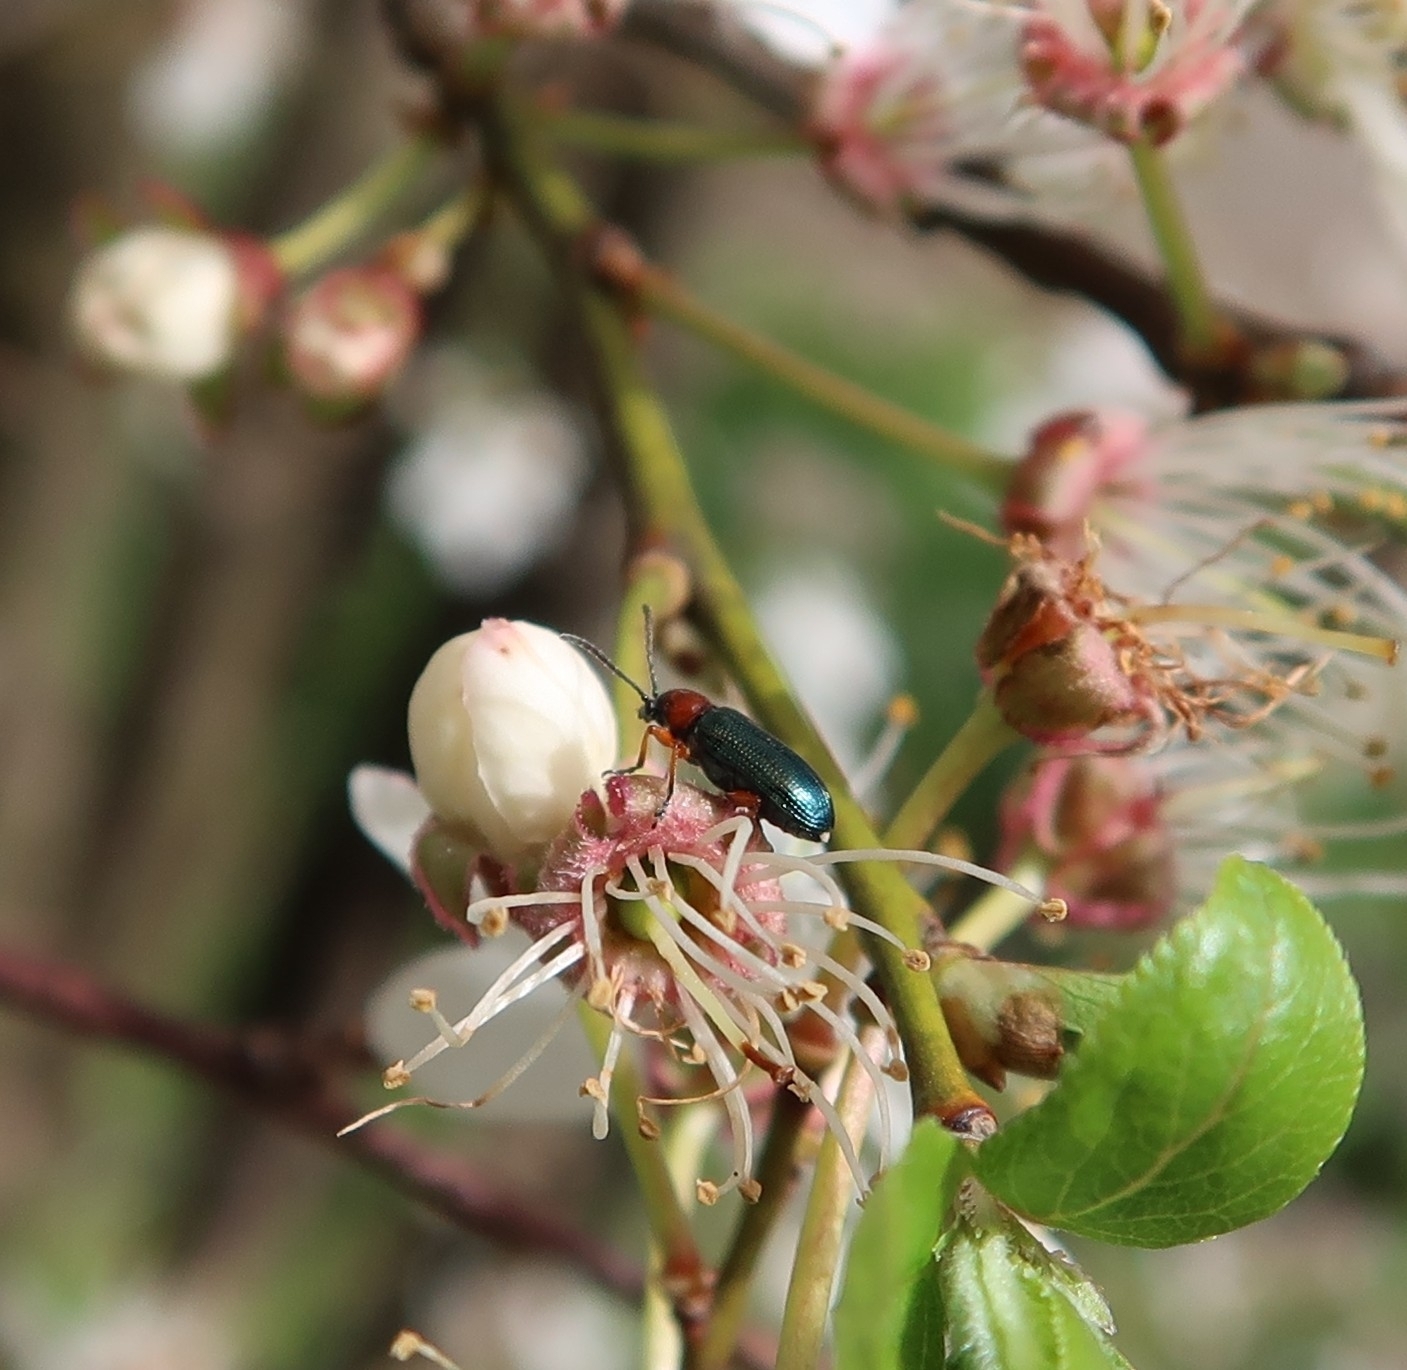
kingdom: Animalia
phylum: Arthropoda
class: Insecta
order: Coleoptera
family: Chrysomelidae
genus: Oulema
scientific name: Oulema
